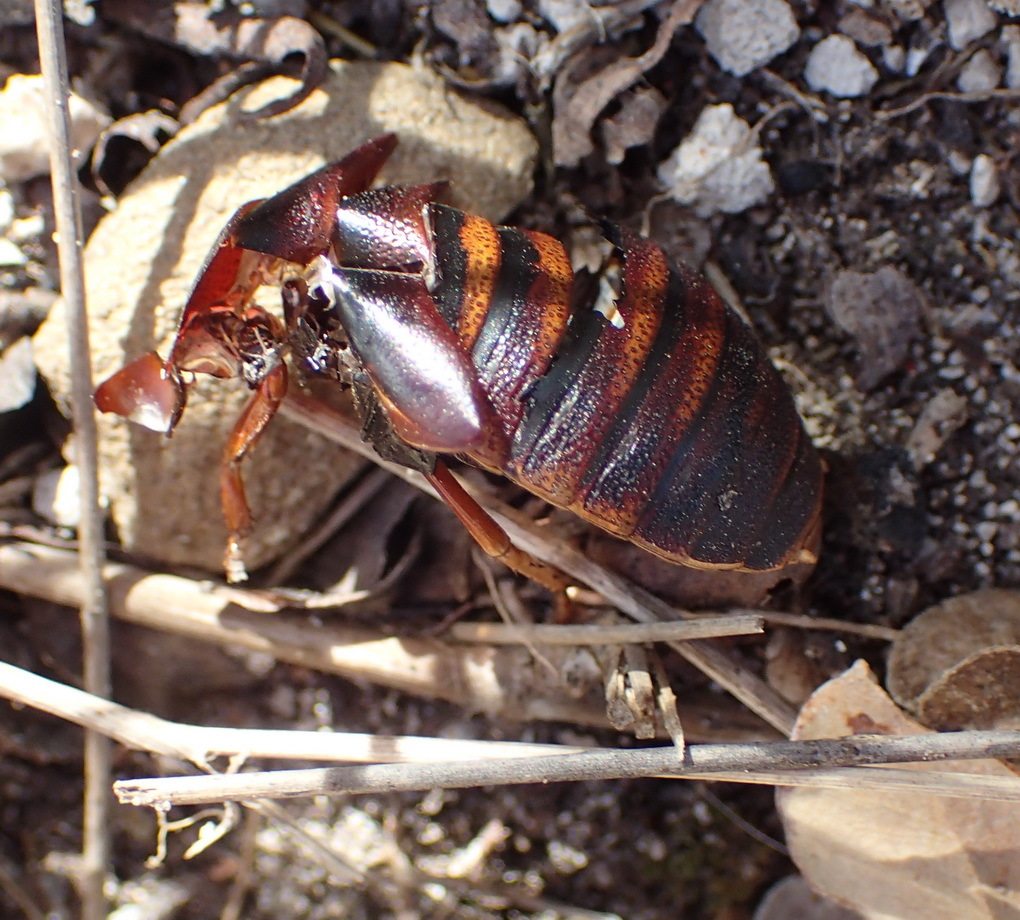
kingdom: Animalia
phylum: Arthropoda
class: Insecta
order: Blattodea
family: Blaberidae
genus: Aptera
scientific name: Aptera fusca
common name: Cape mountain cockroach
